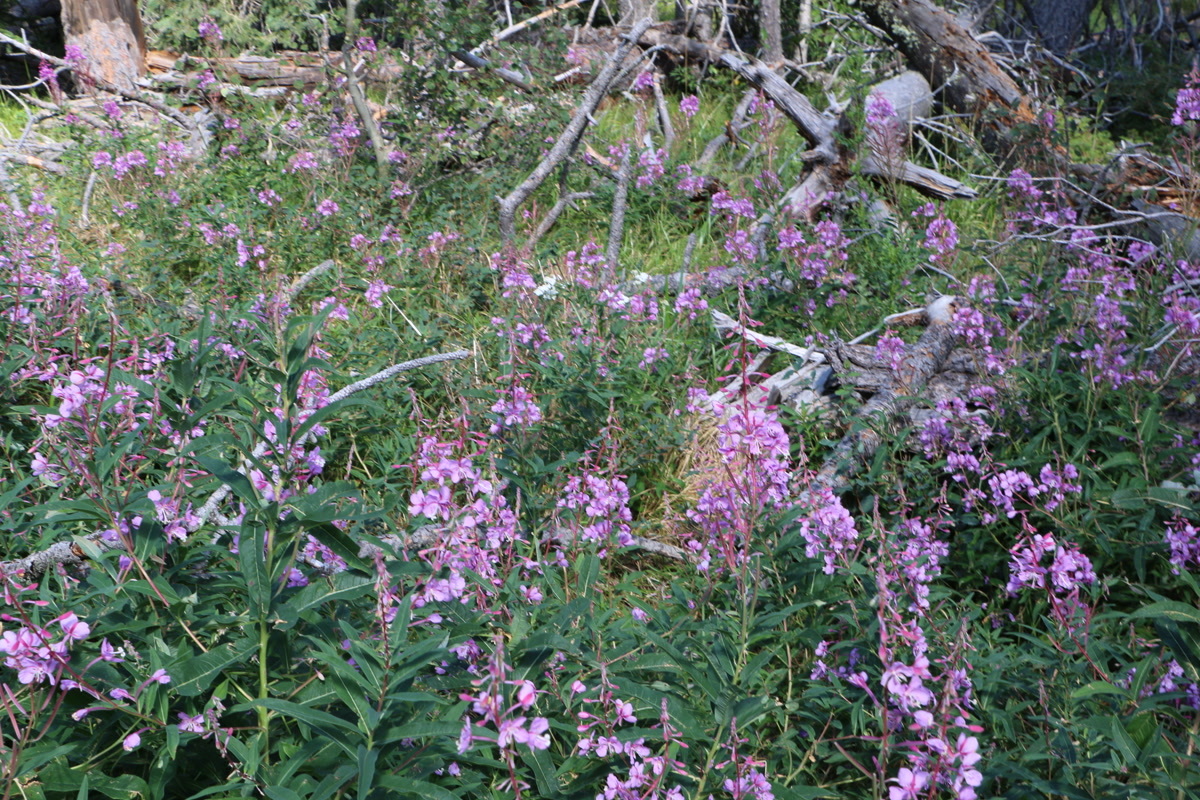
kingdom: Plantae
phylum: Tracheophyta
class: Magnoliopsida
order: Myrtales
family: Onagraceae
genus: Chamaenerion
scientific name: Chamaenerion angustifolium
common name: Fireweed
